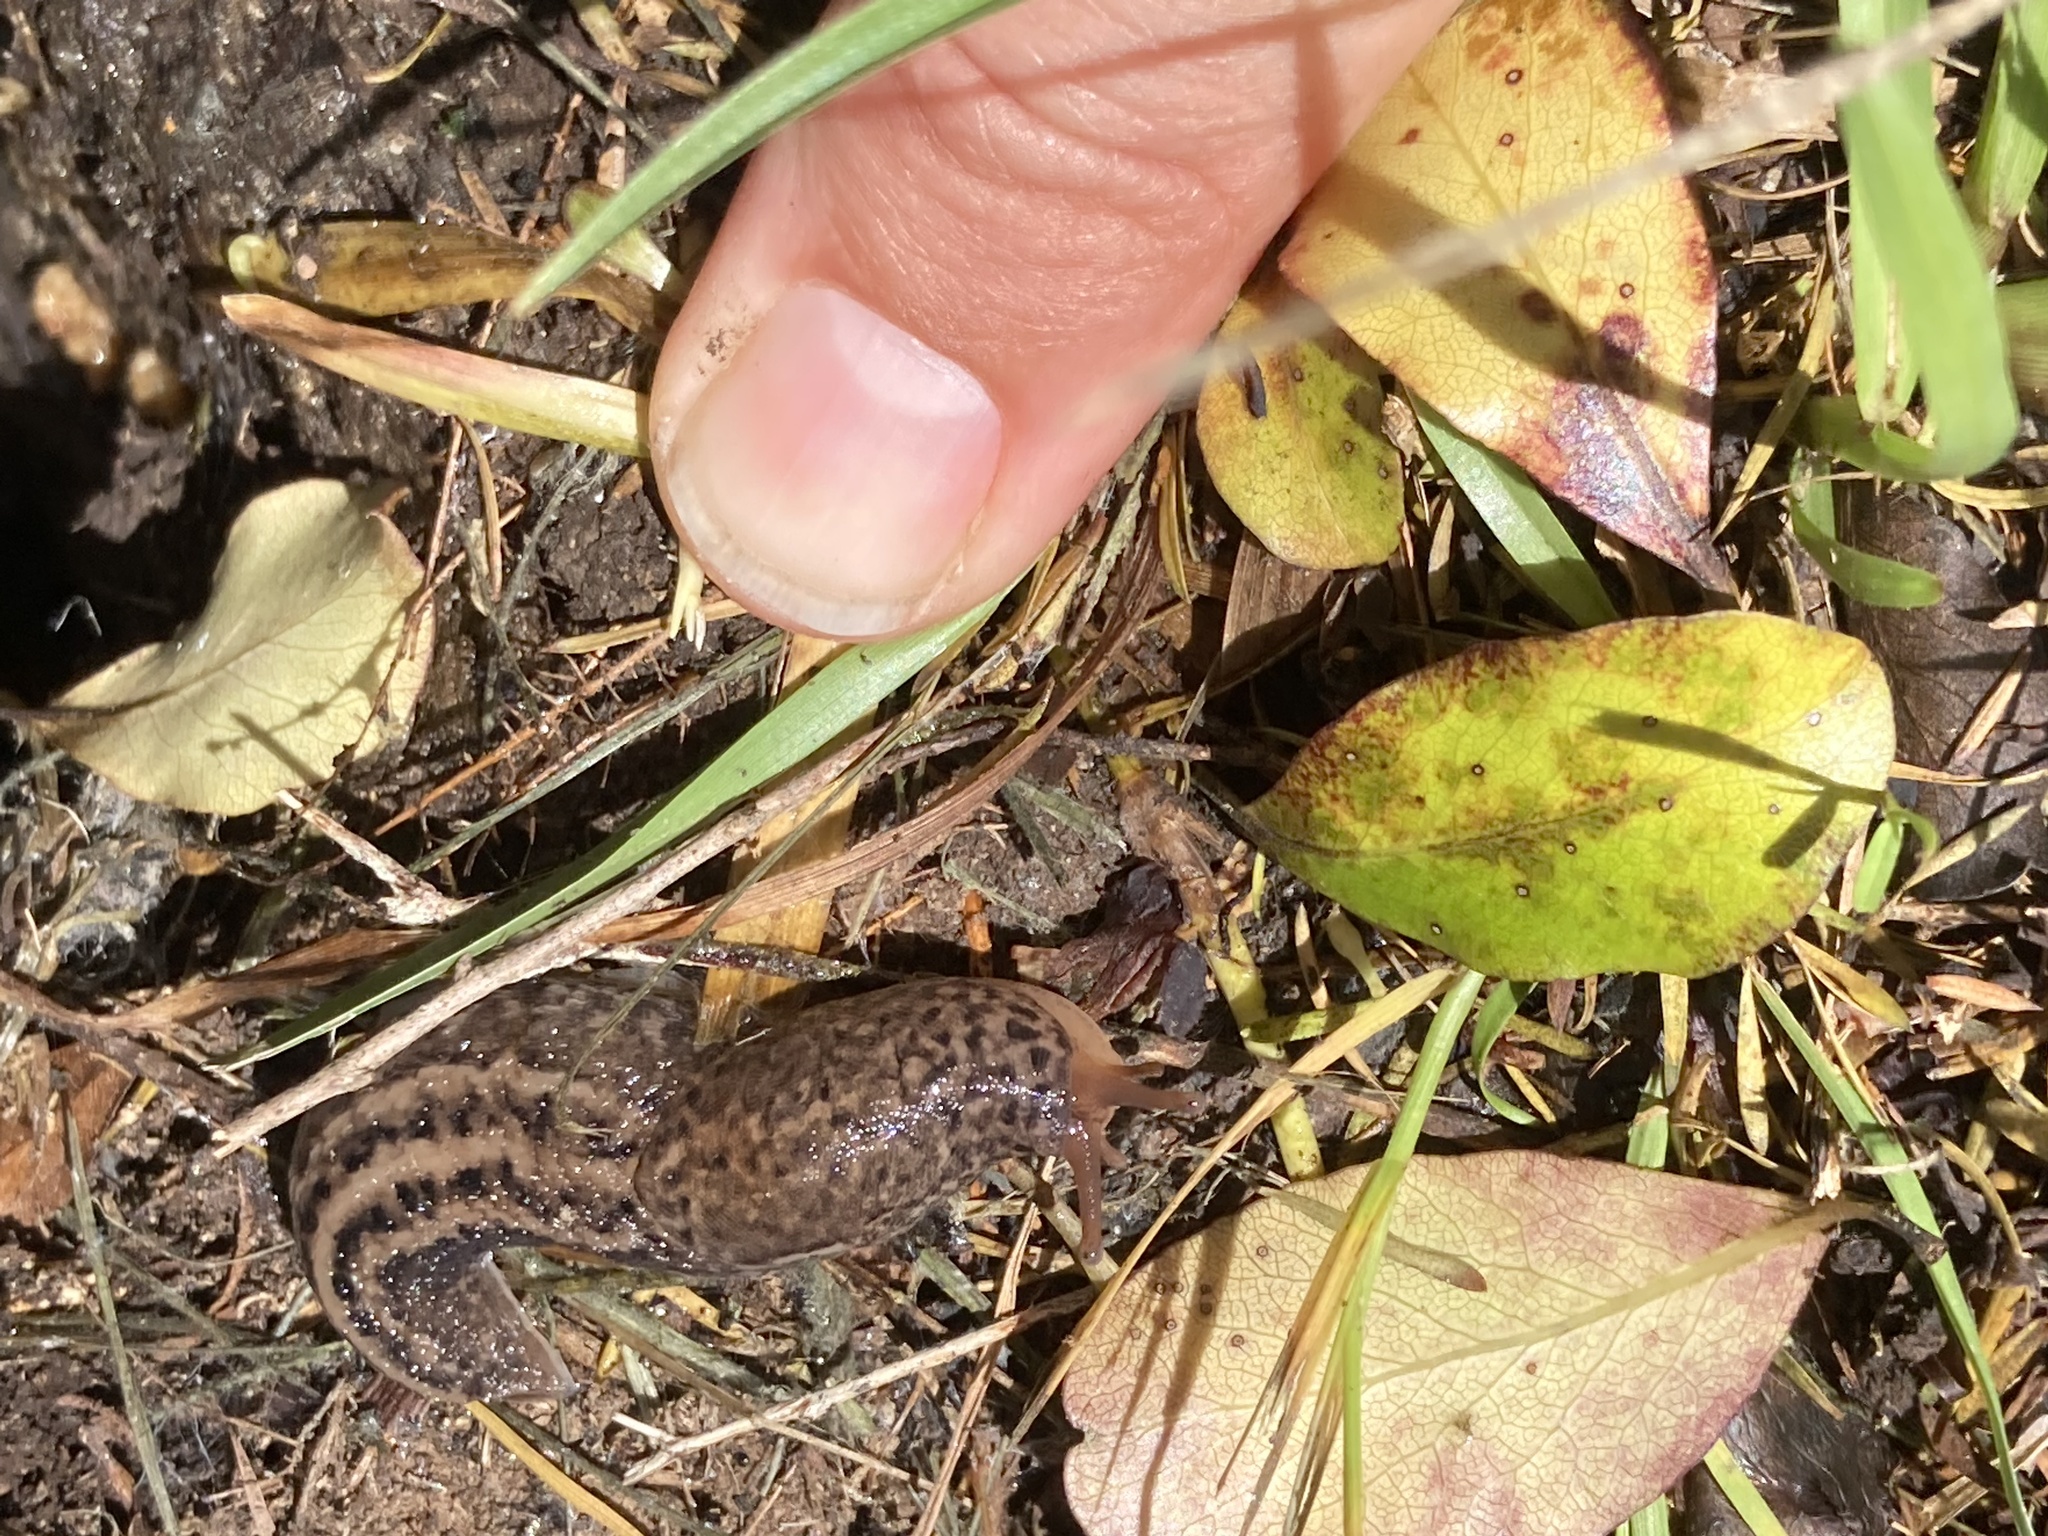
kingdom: Animalia
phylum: Mollusca
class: Gastropoda
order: Stylommatophora
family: Limacidae
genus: Limax
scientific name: Limax maximus
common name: Great grey slug
